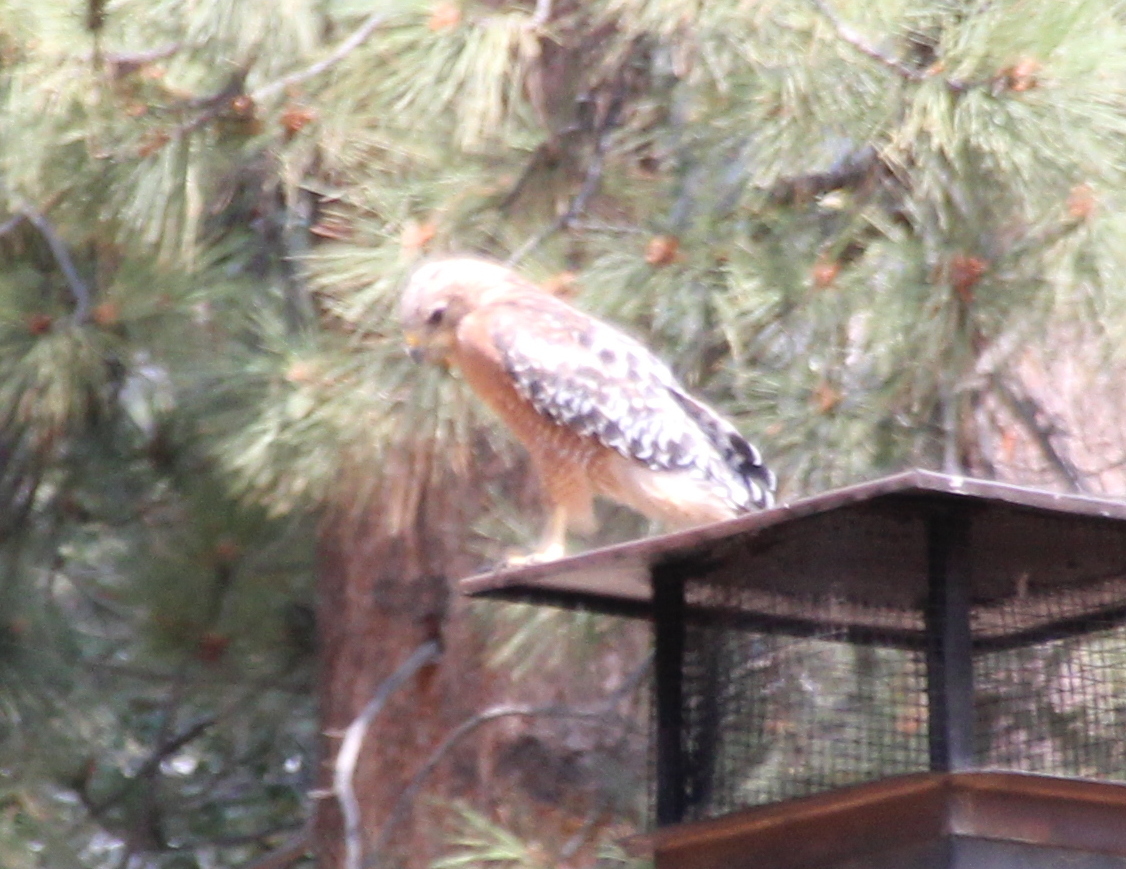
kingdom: Animalia
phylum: Chordata
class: Aves
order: Accipitriformes
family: Accipitridae
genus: Buteo
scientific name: Buteo lineatus
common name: Red-shouldered hawk
